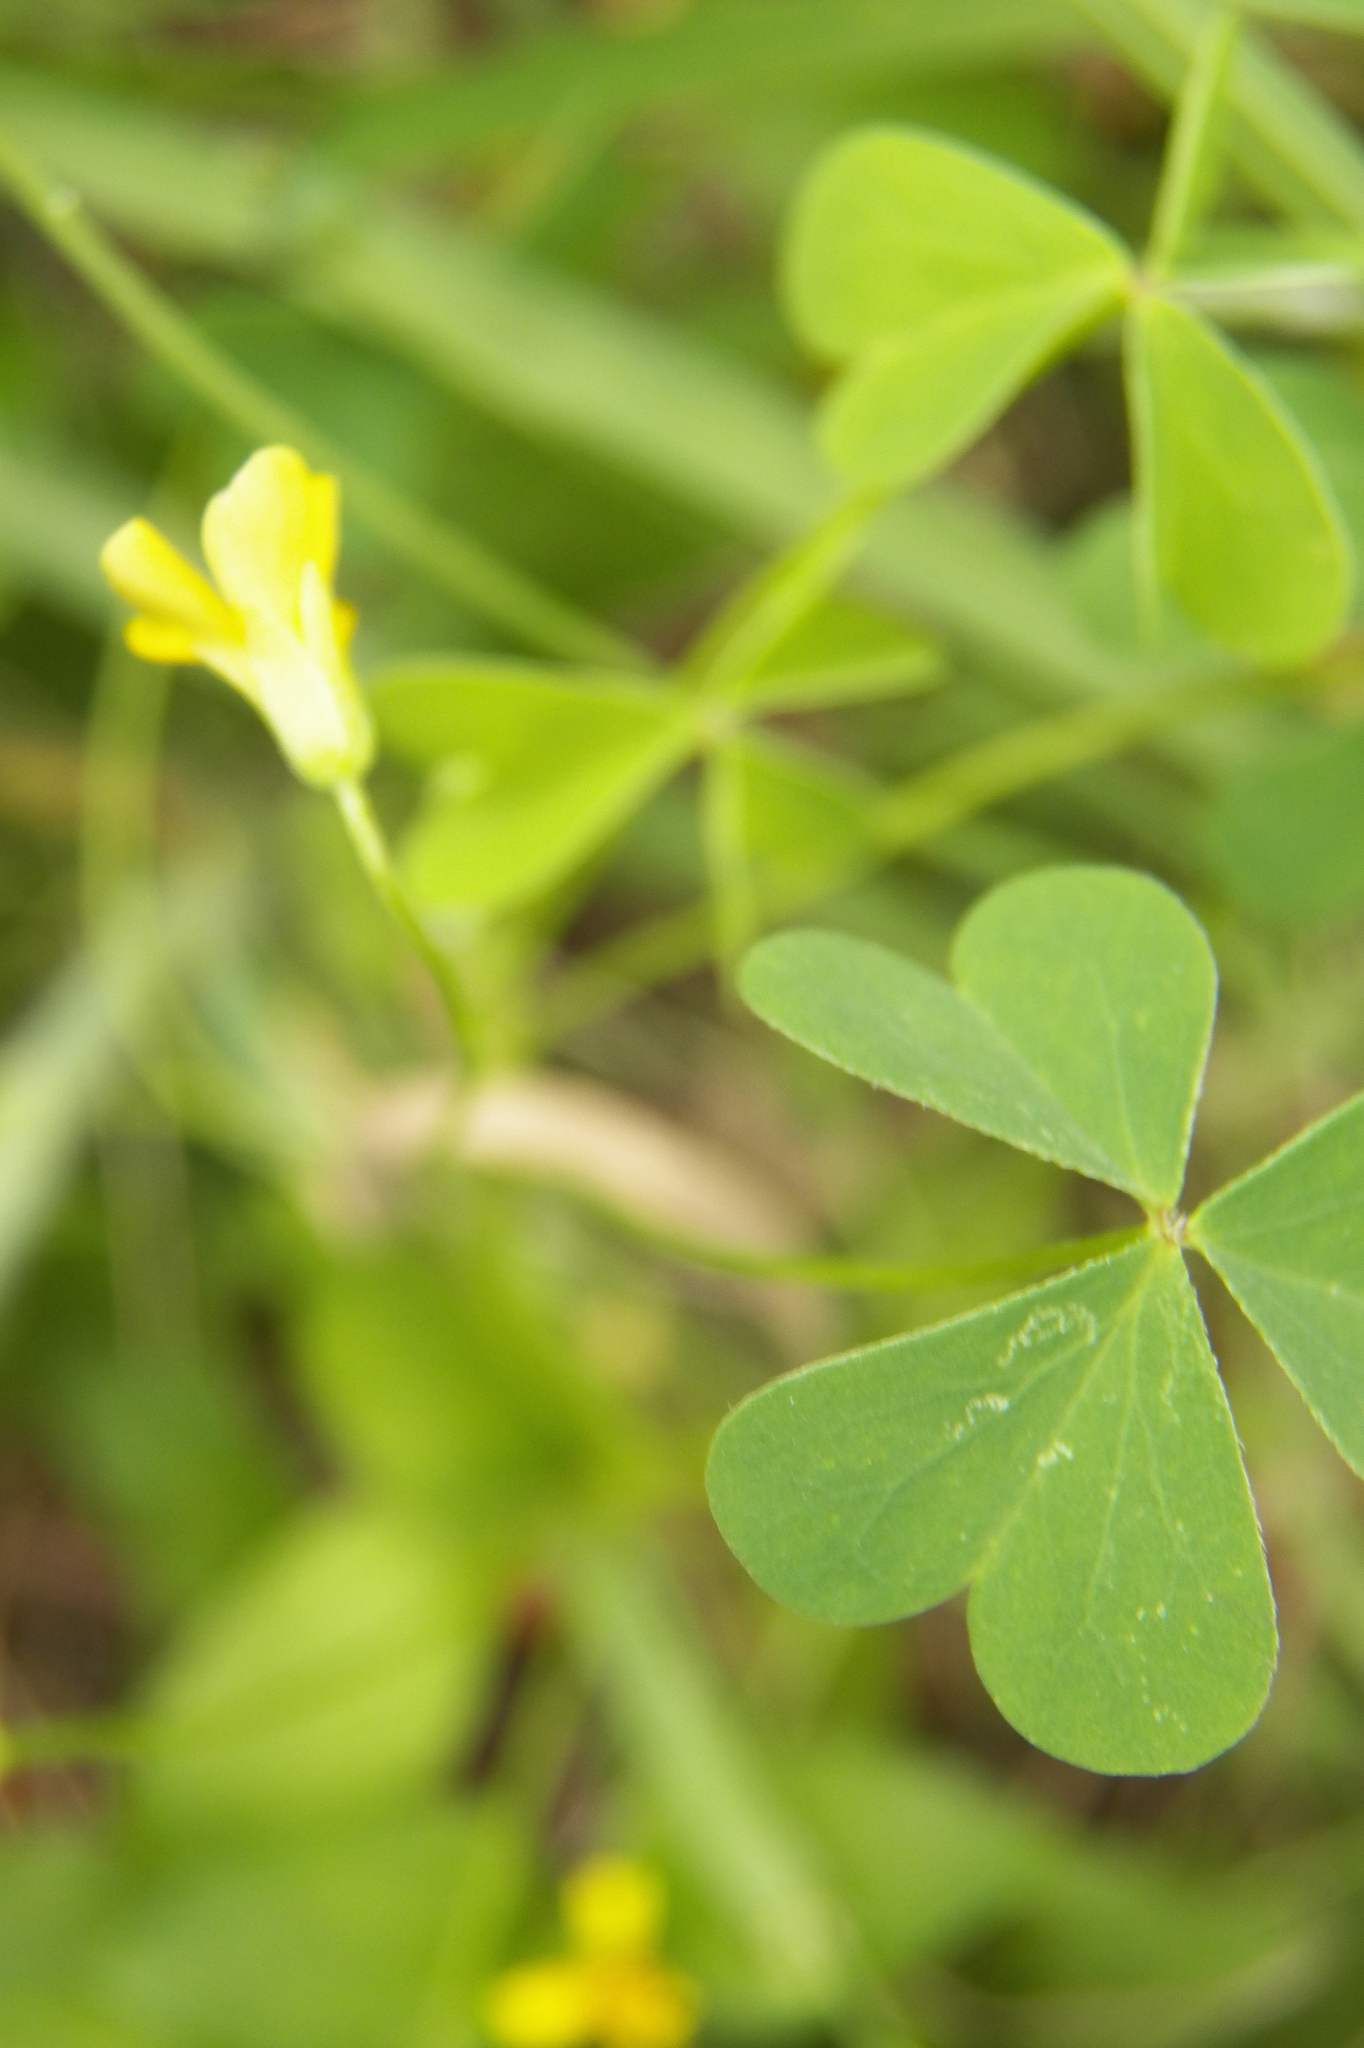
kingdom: Plantae
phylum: Tracheophyta
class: Magnoliopsida
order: Oxalidales
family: Oxalidaceae
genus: Oxalis
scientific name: Oxalis dillenii
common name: Sussex yellow-sorrel
